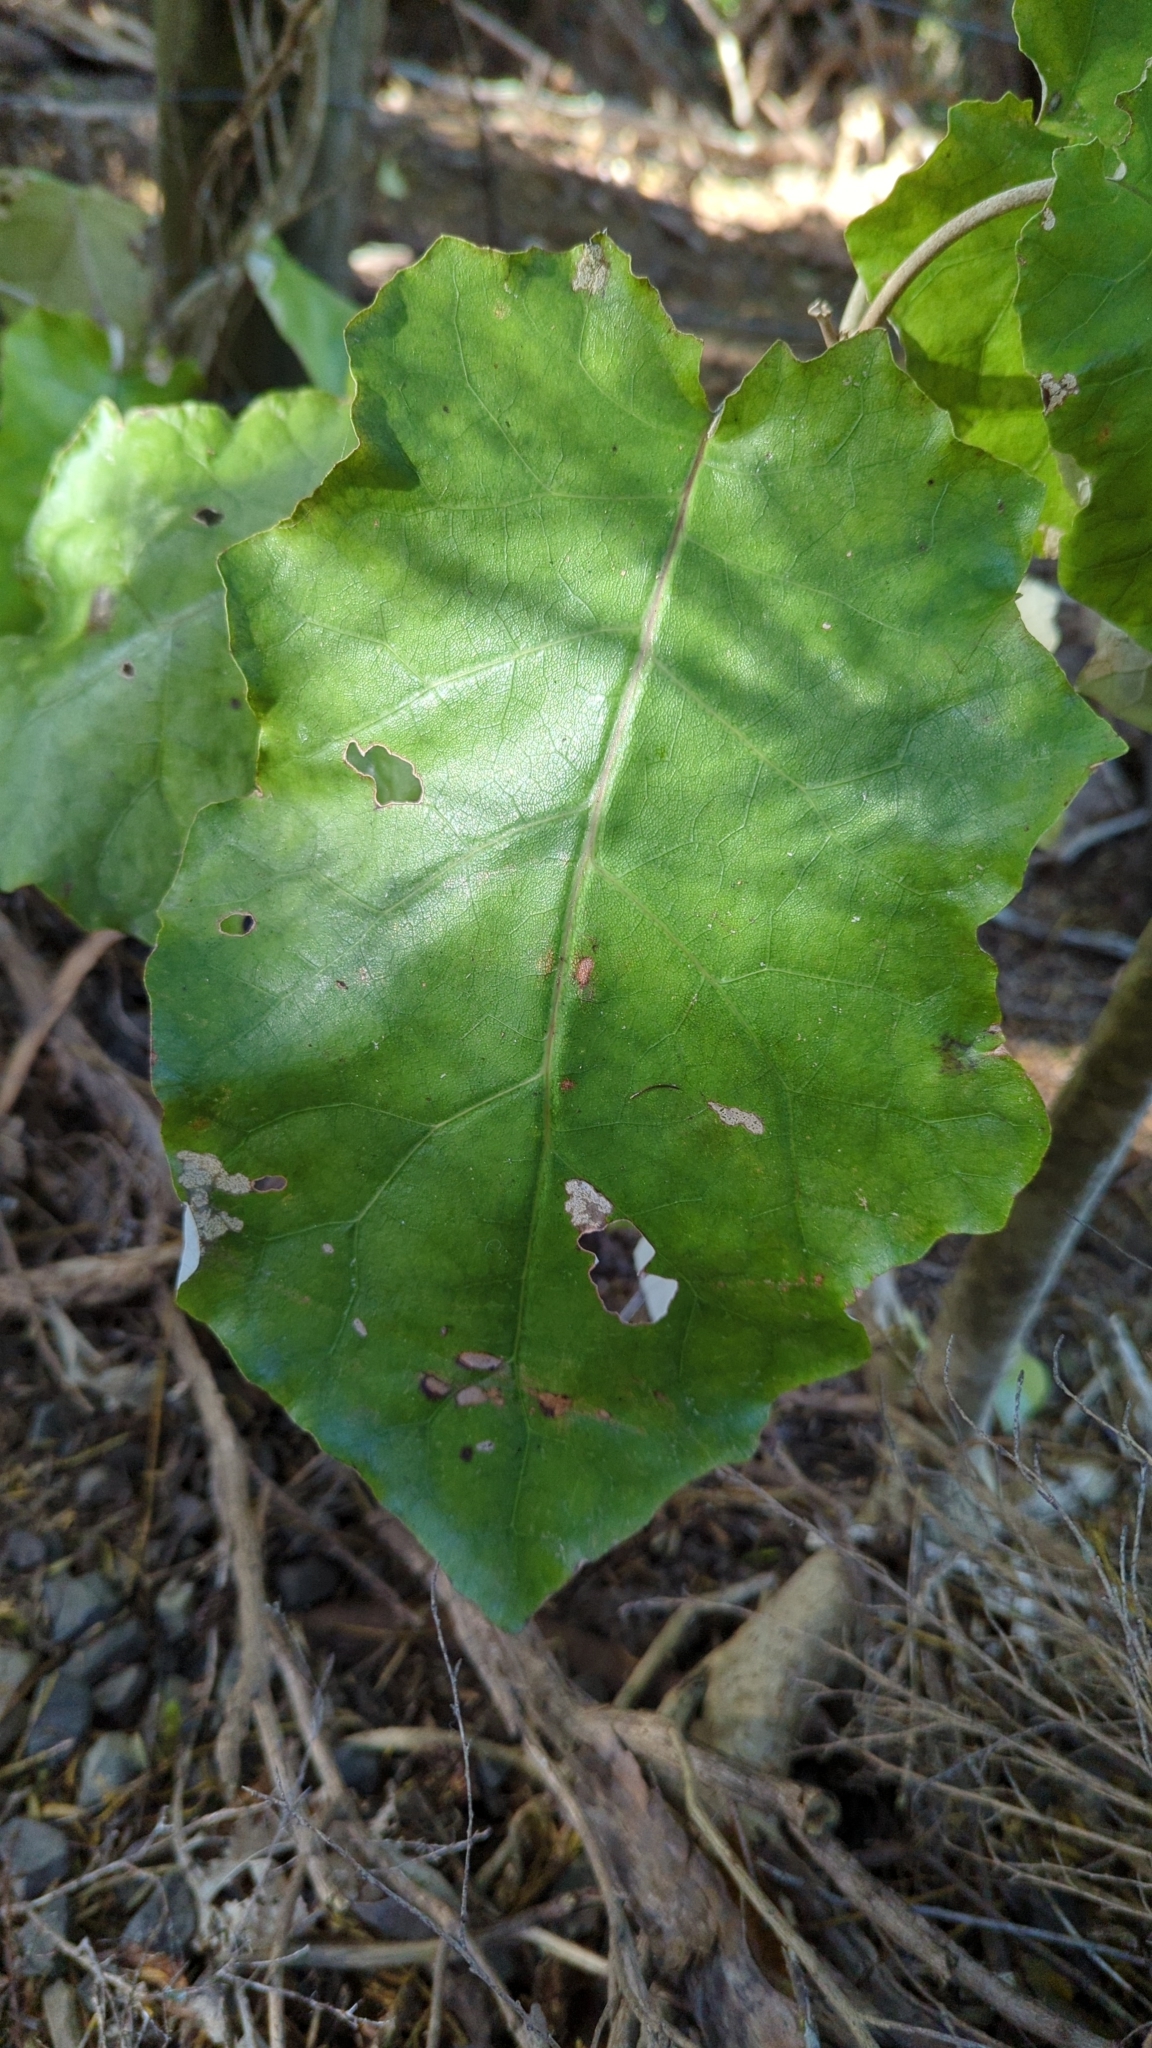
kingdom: Plantae
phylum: Tracheophyta
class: Magnoliopsida
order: Asterales
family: Asteraceae
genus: Brachyglottis
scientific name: Brachyglottis repanda
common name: Hedge ragwort
